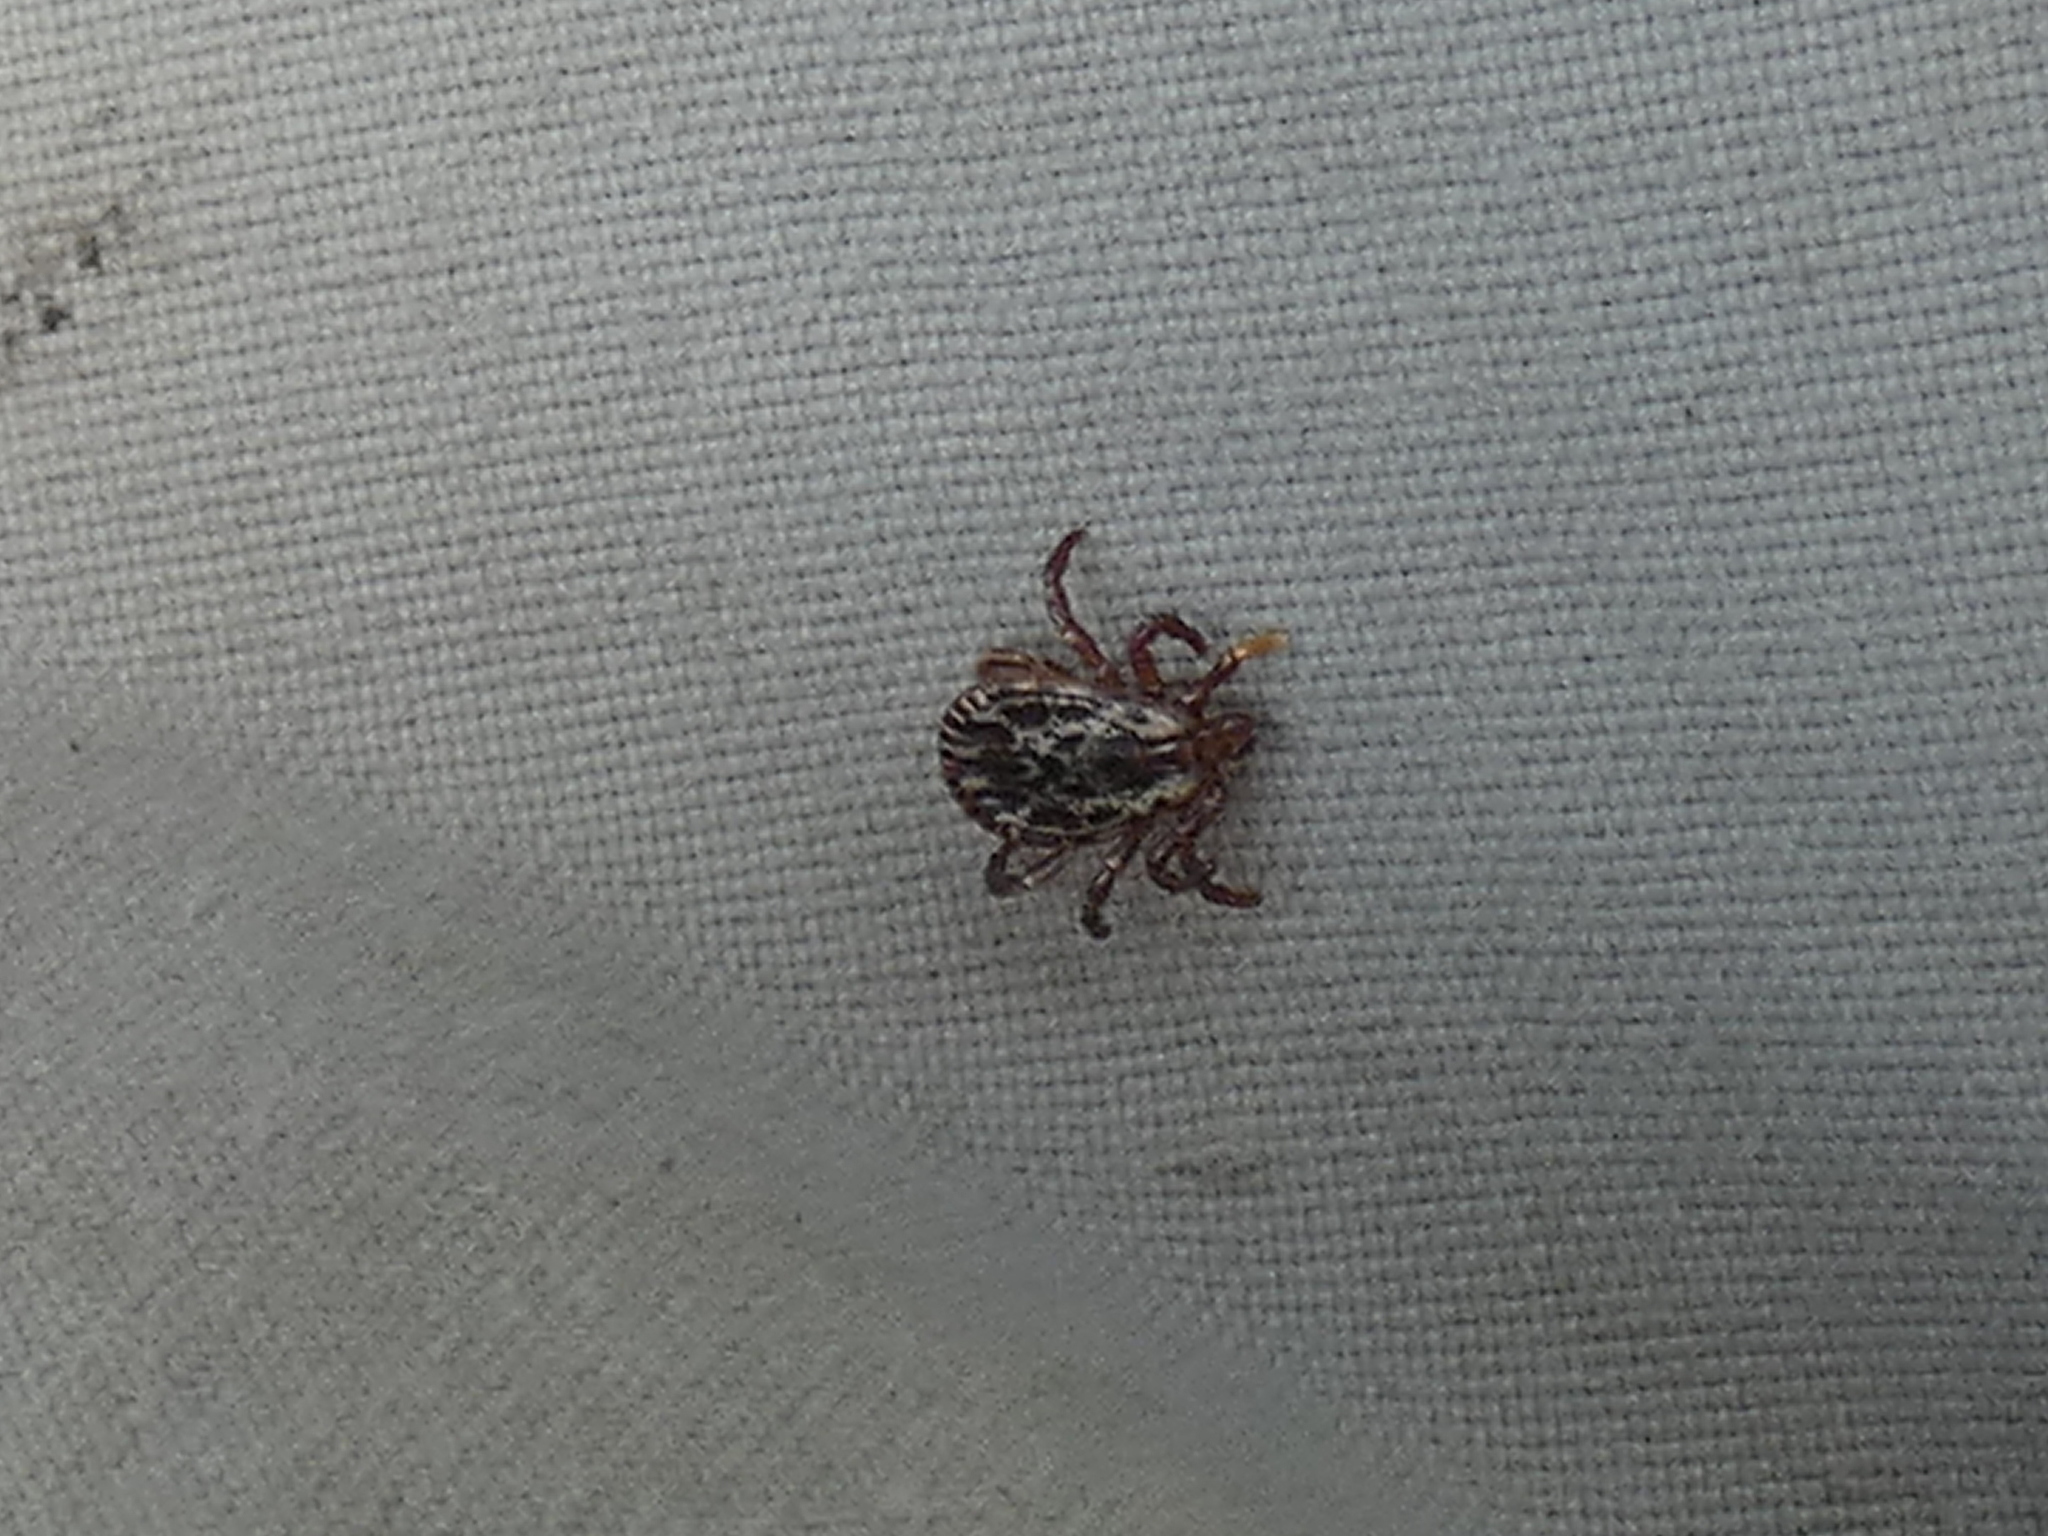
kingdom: Animalia
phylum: Arthropoda
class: Arachnida
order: Ixodida
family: Ixodidae
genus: Dermacentor
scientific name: Dermacentor variabilis
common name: American dog tick
